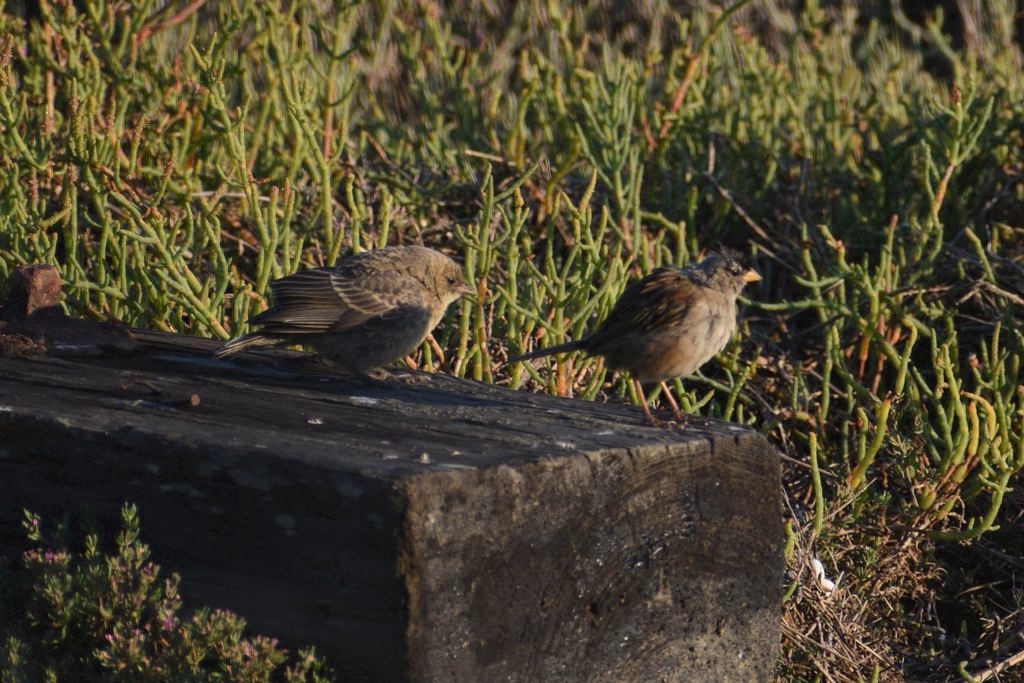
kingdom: Animalia
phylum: Chordata
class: Aves
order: Passeriformes
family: Icteridae
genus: Molothrus
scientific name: Molothrus ater
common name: Brown-headed cowbird
